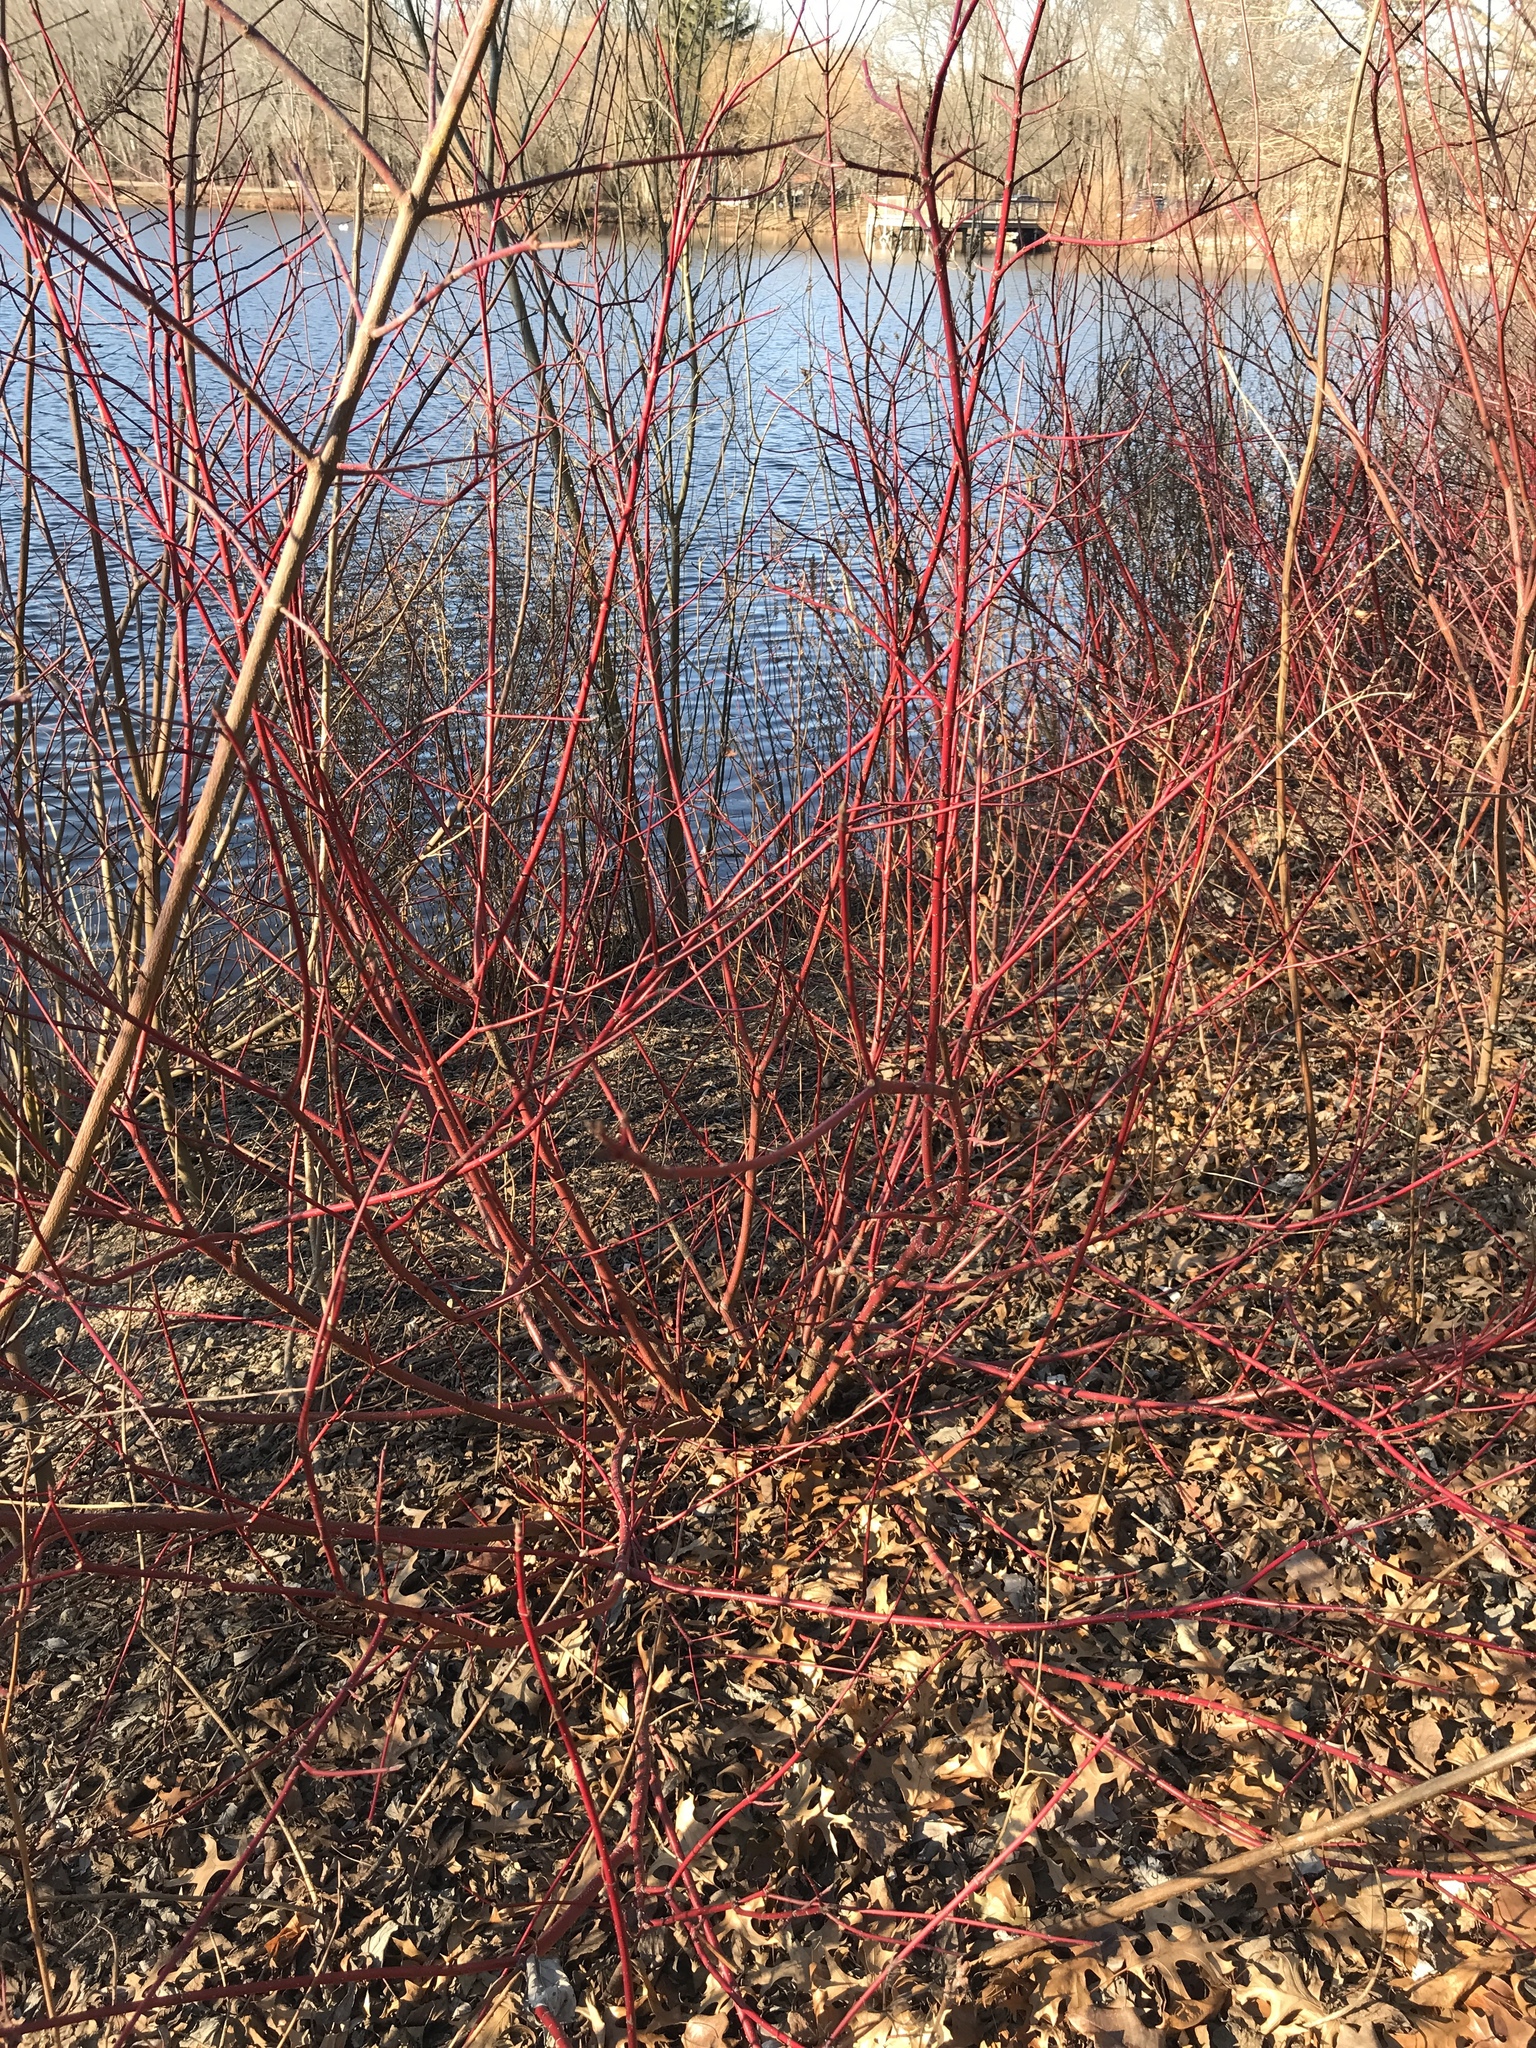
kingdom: Plantae
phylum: Tracheophyta
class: Magnoliopsida
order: Cornales
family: Cornaceae
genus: Cornus
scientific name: Cornus sericea
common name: Red-osier dogwood
